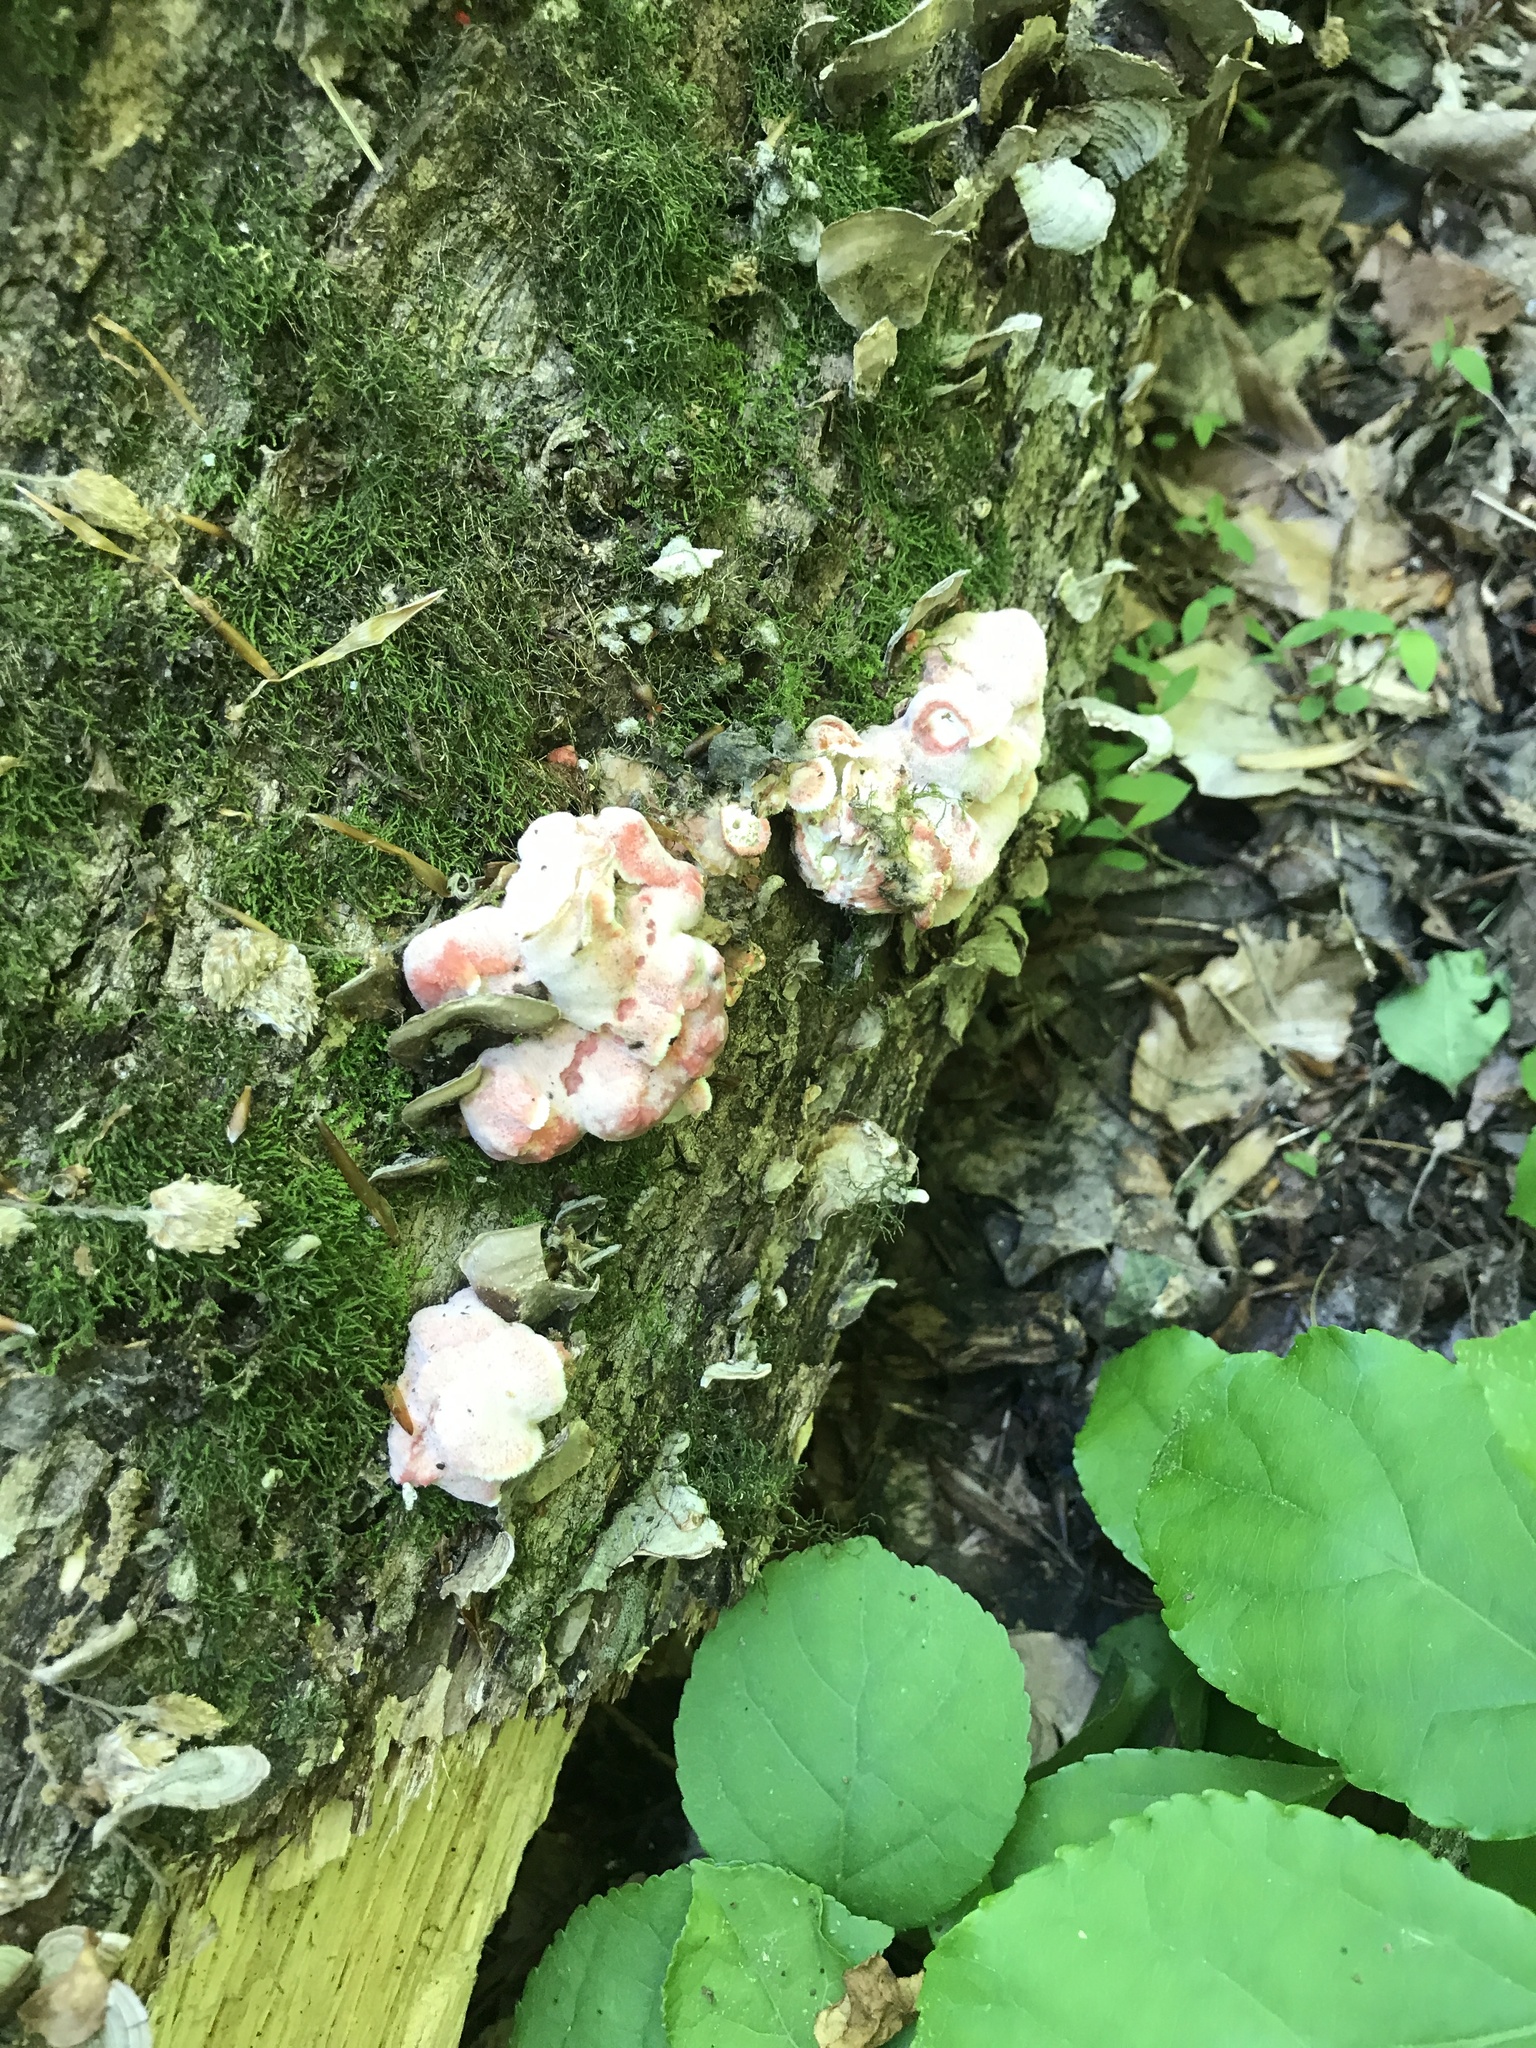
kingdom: Fungi
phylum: Basidiomycota
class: Agaricomycetes
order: Polyporales
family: Irpicaceae
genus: Byssomerulius
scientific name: Byssomerulius incarnatus
